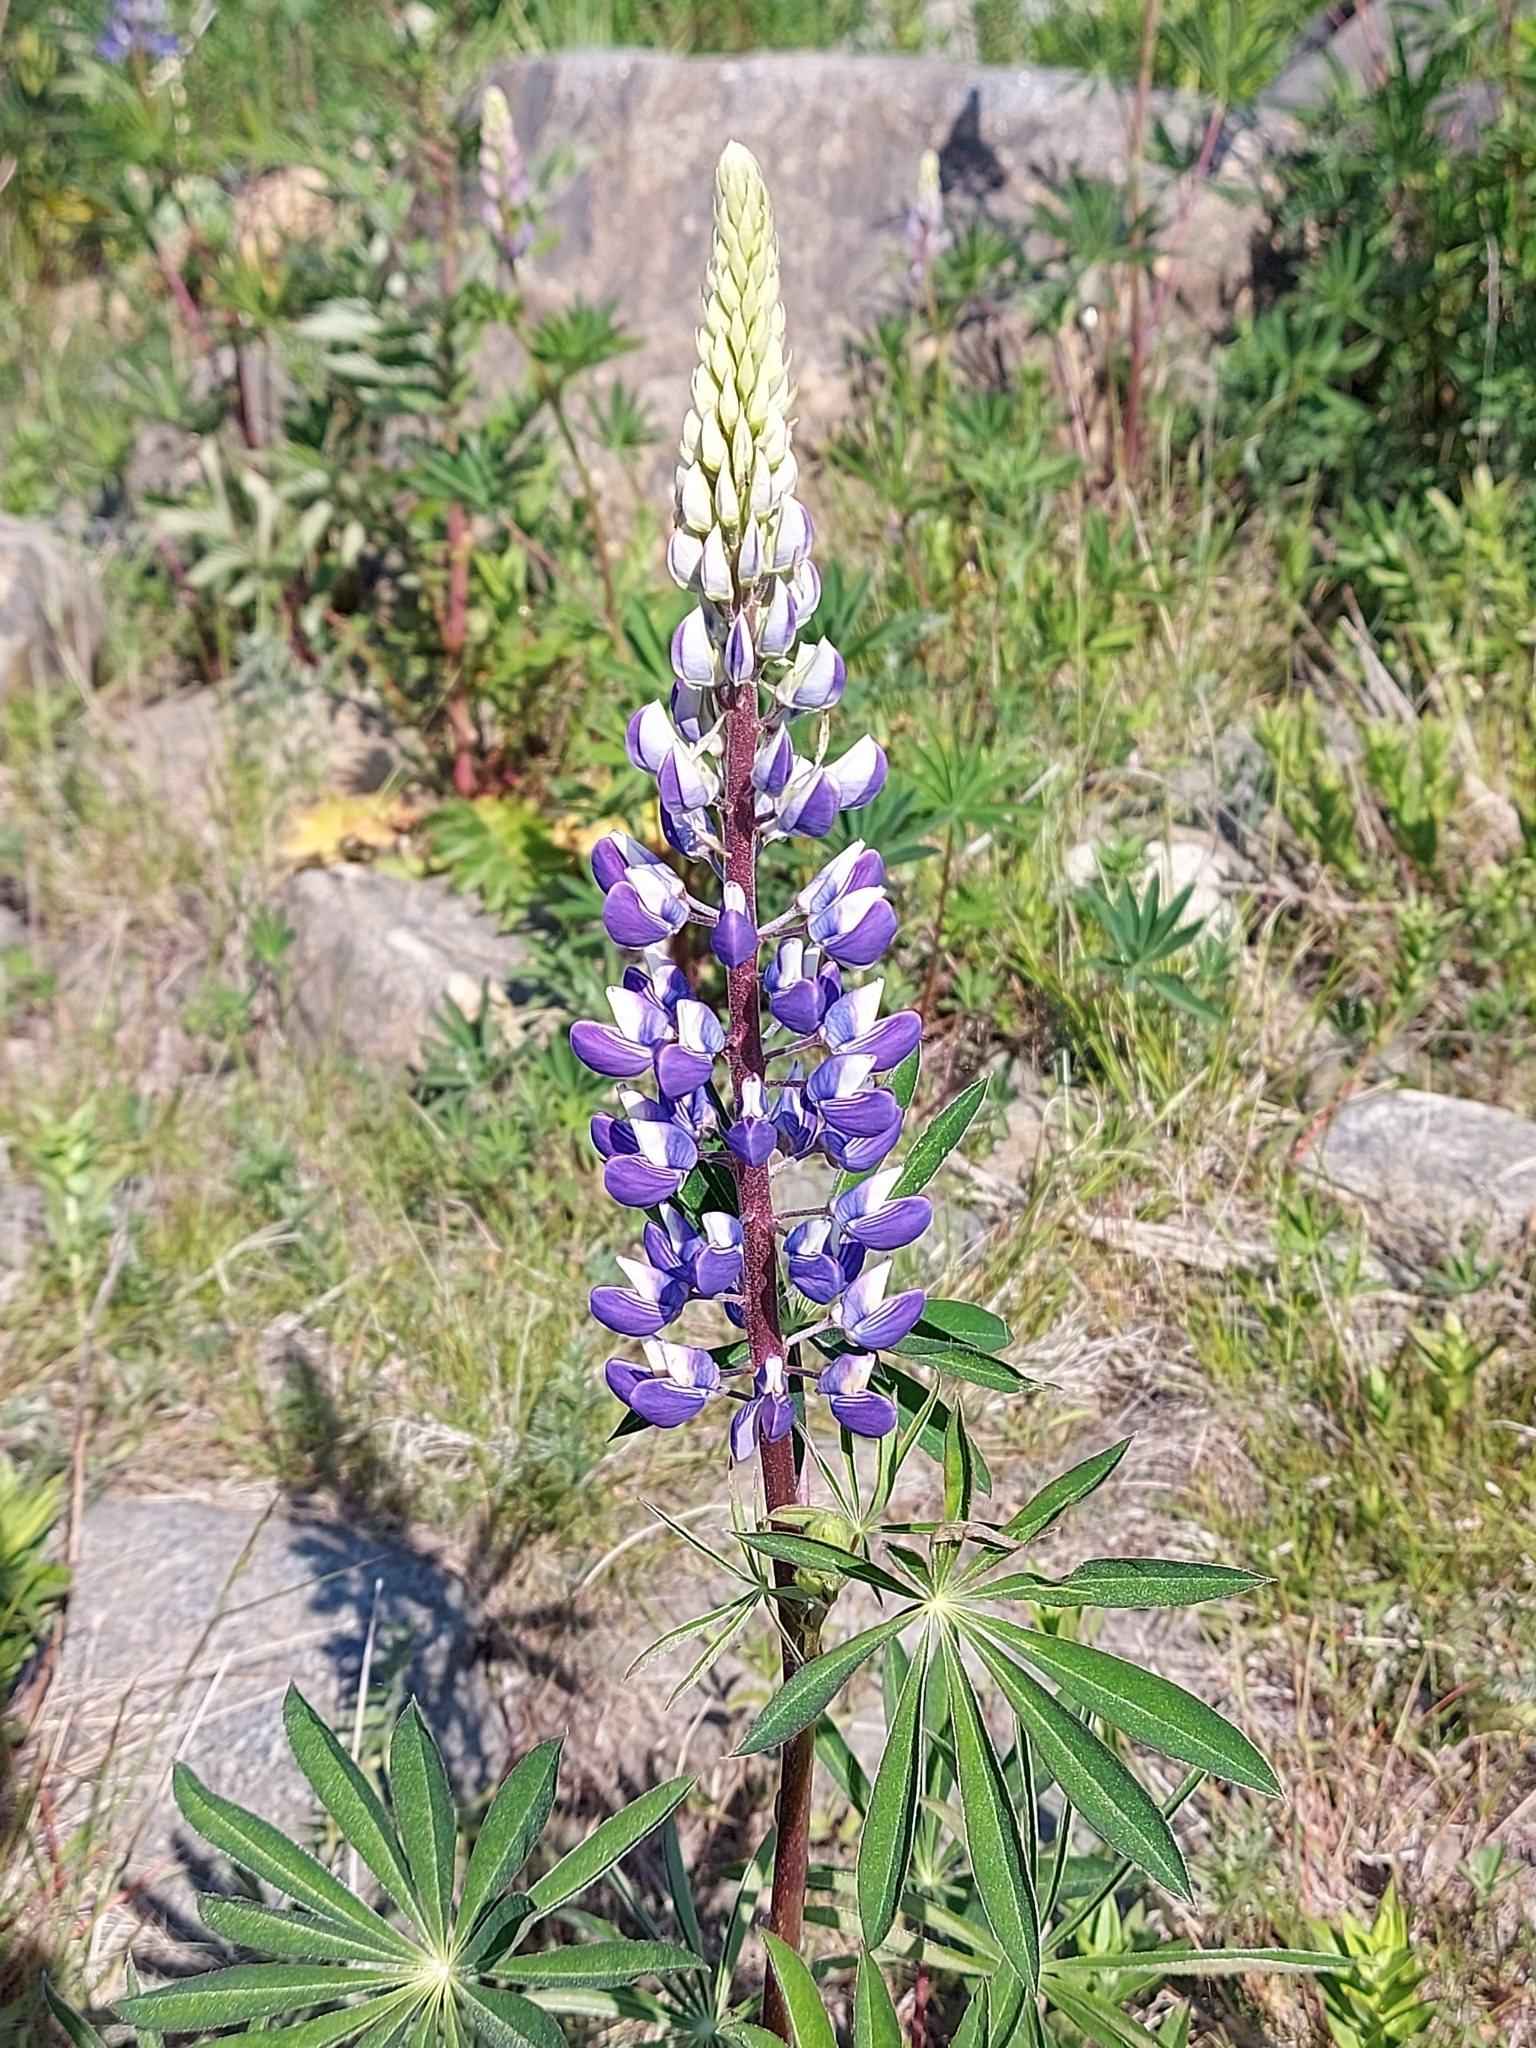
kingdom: Plantae
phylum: Tracheophyta
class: Magnoliopsida
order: Fabales
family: Fabaceae
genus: Lupinus
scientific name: Lupinus polyphyllus
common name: Garden lupin
